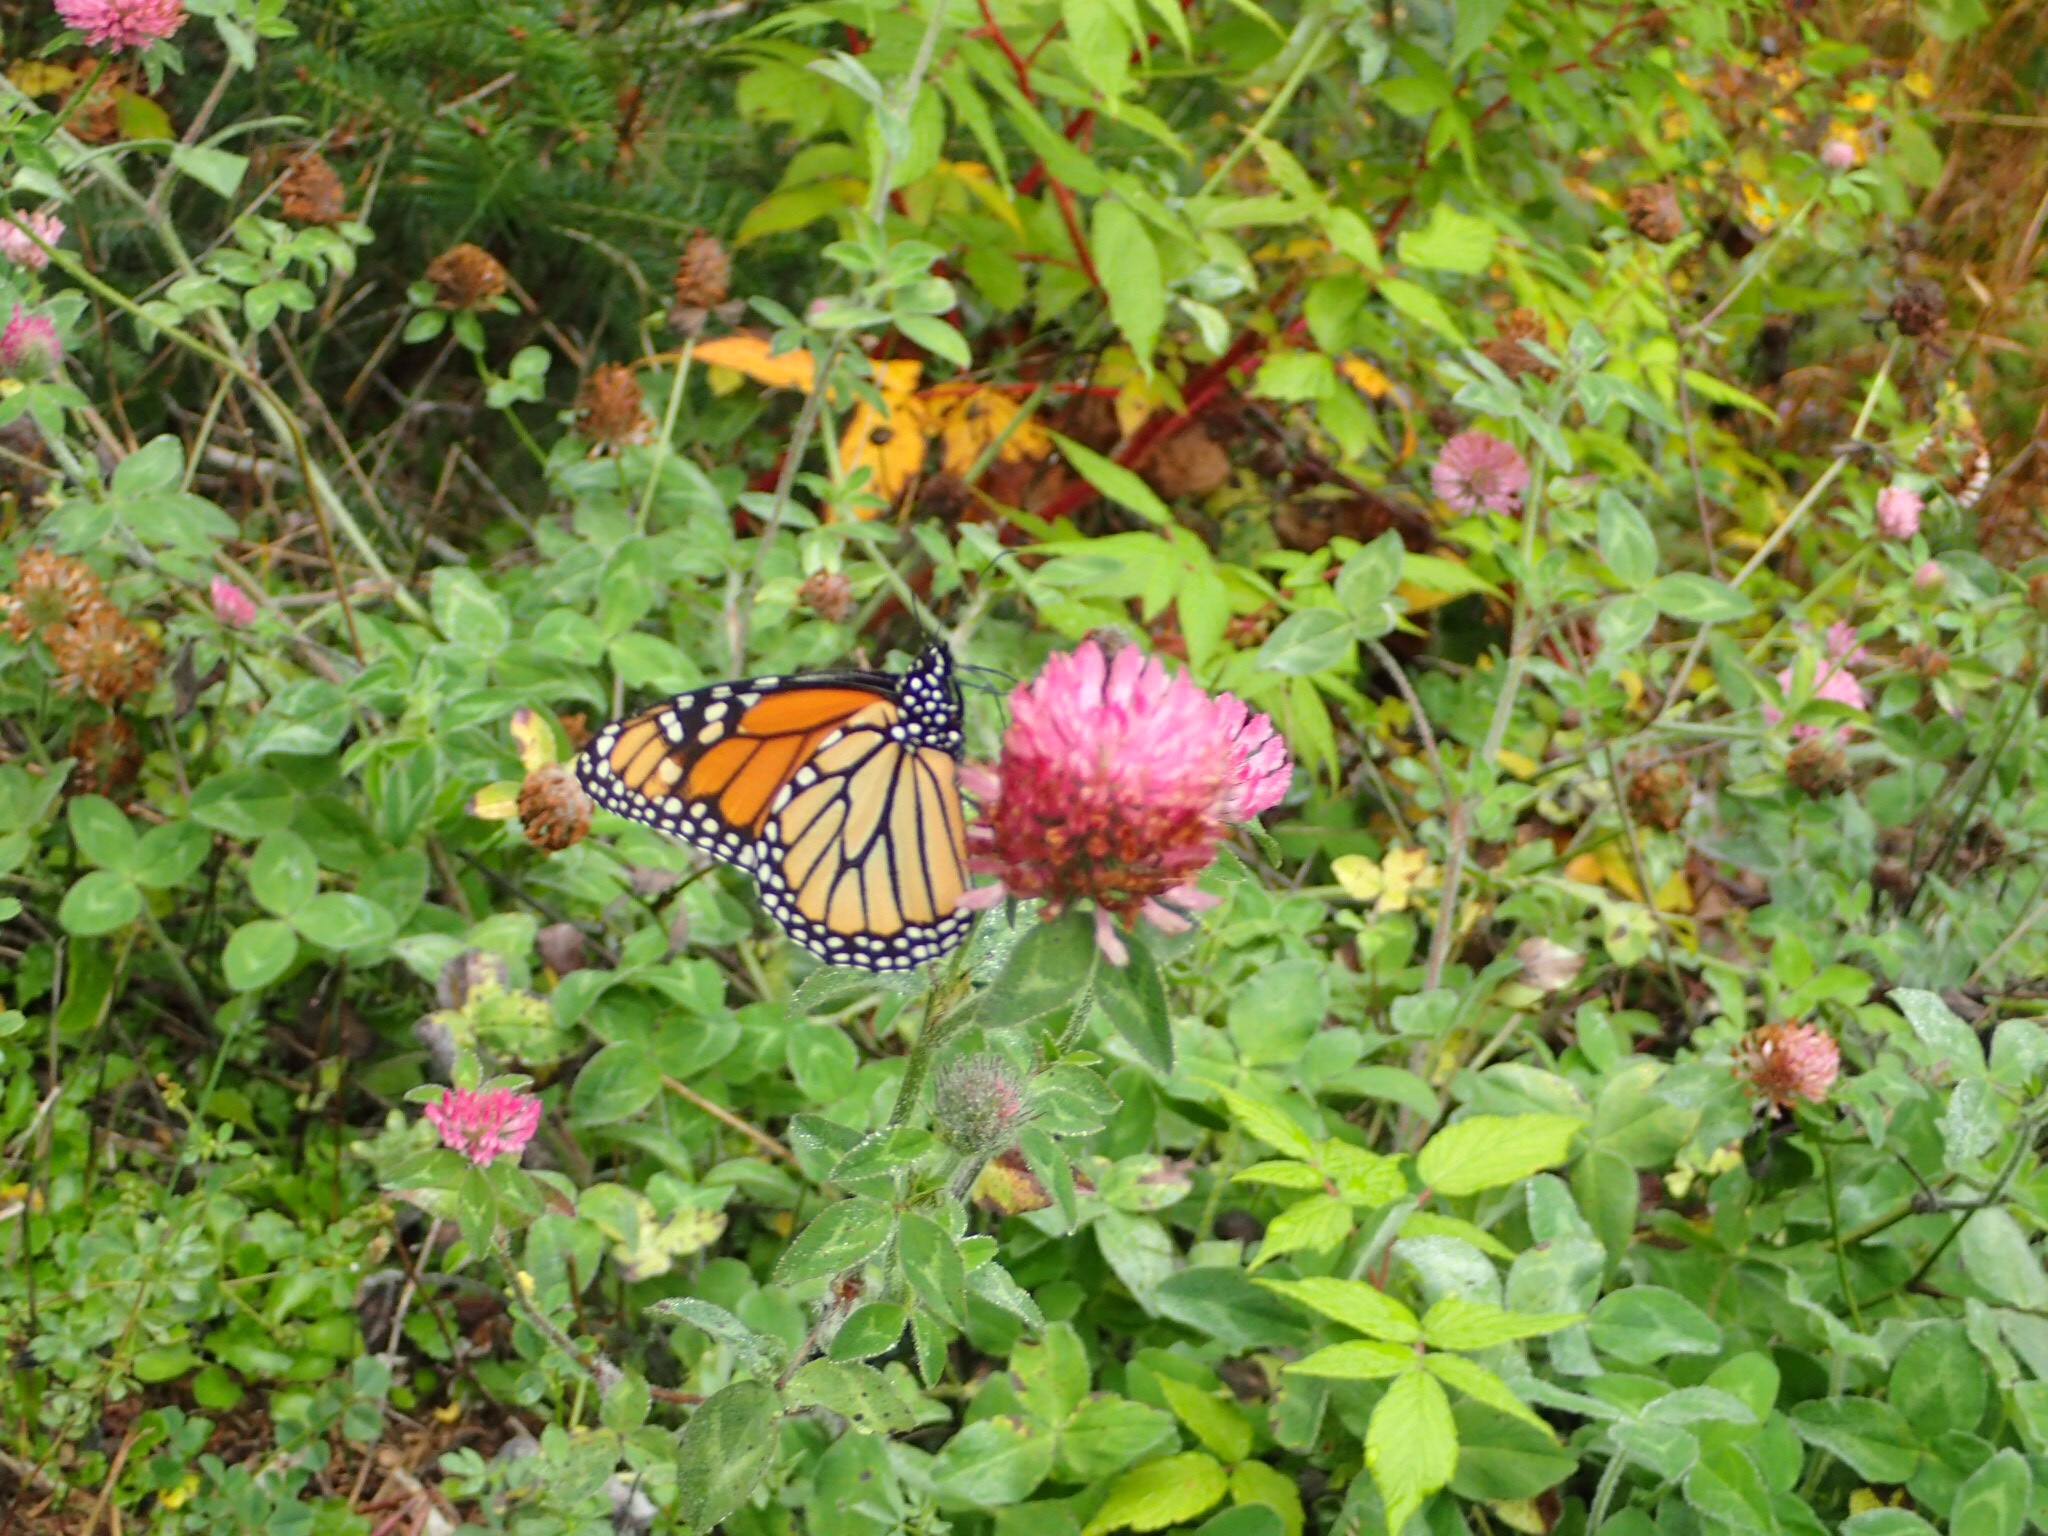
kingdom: Animalia
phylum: Arthropoda
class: Insecta
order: Lepidoptera
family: Nymphalidae
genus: Danaus
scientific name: Danaus plexippus
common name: Monarch
